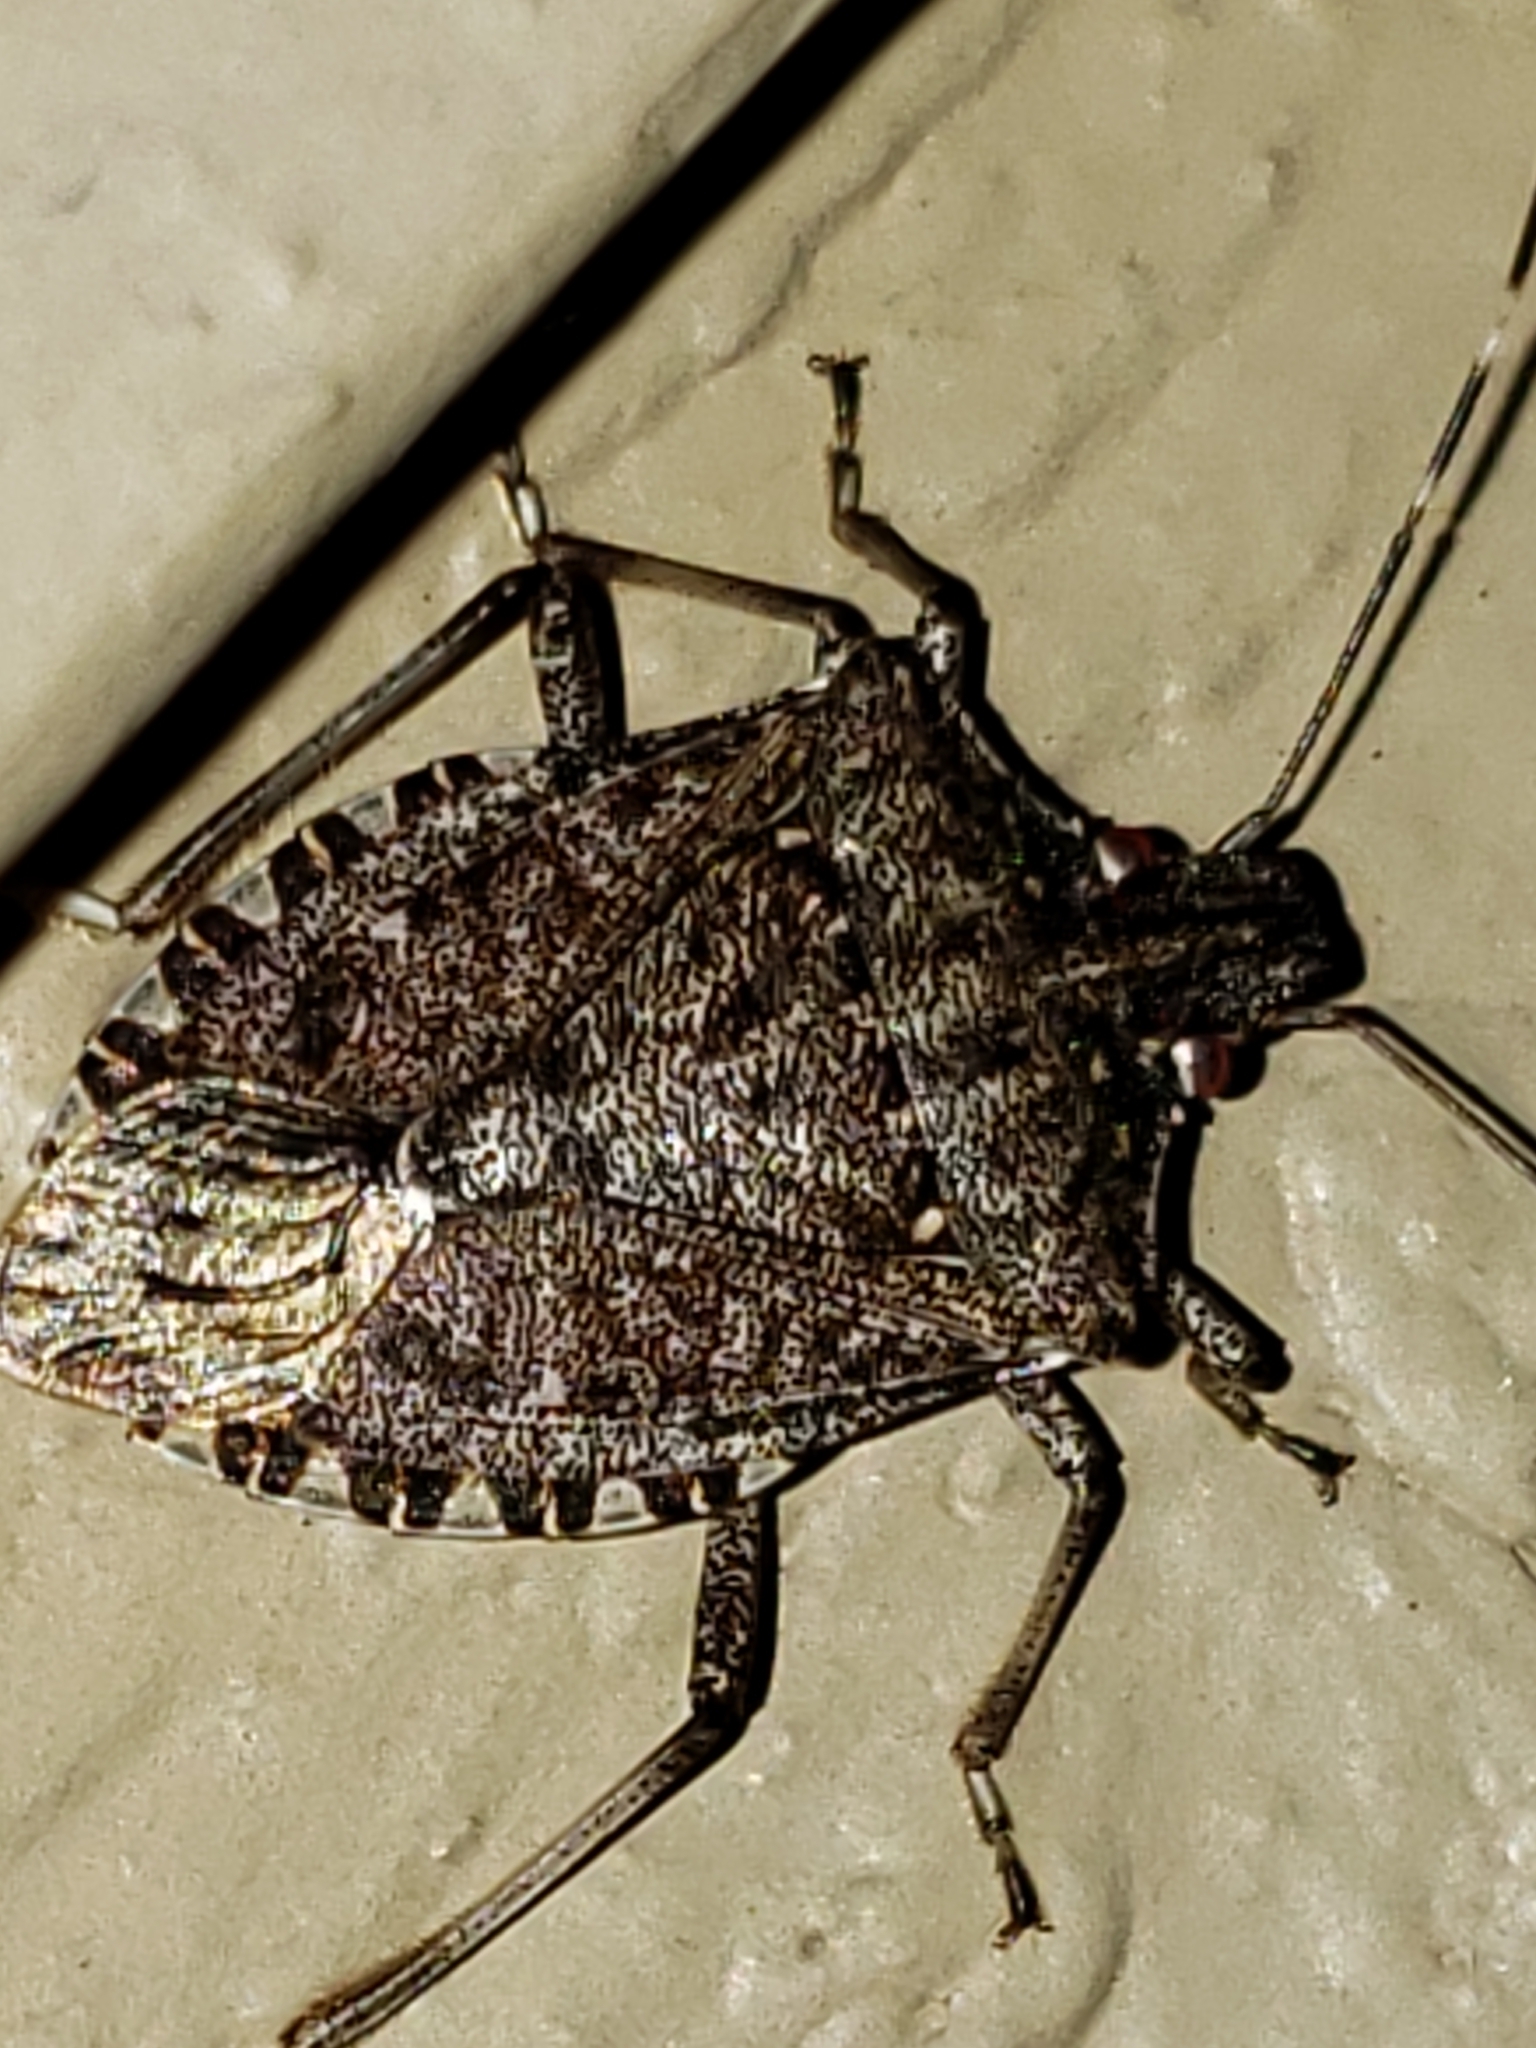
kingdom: Animalia
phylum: Arthropoda
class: Insecta
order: Hemiptera
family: Pentatomidae
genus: Halyomorpha
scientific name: Halyomorpha halys
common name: Brown marmorated stink bug
